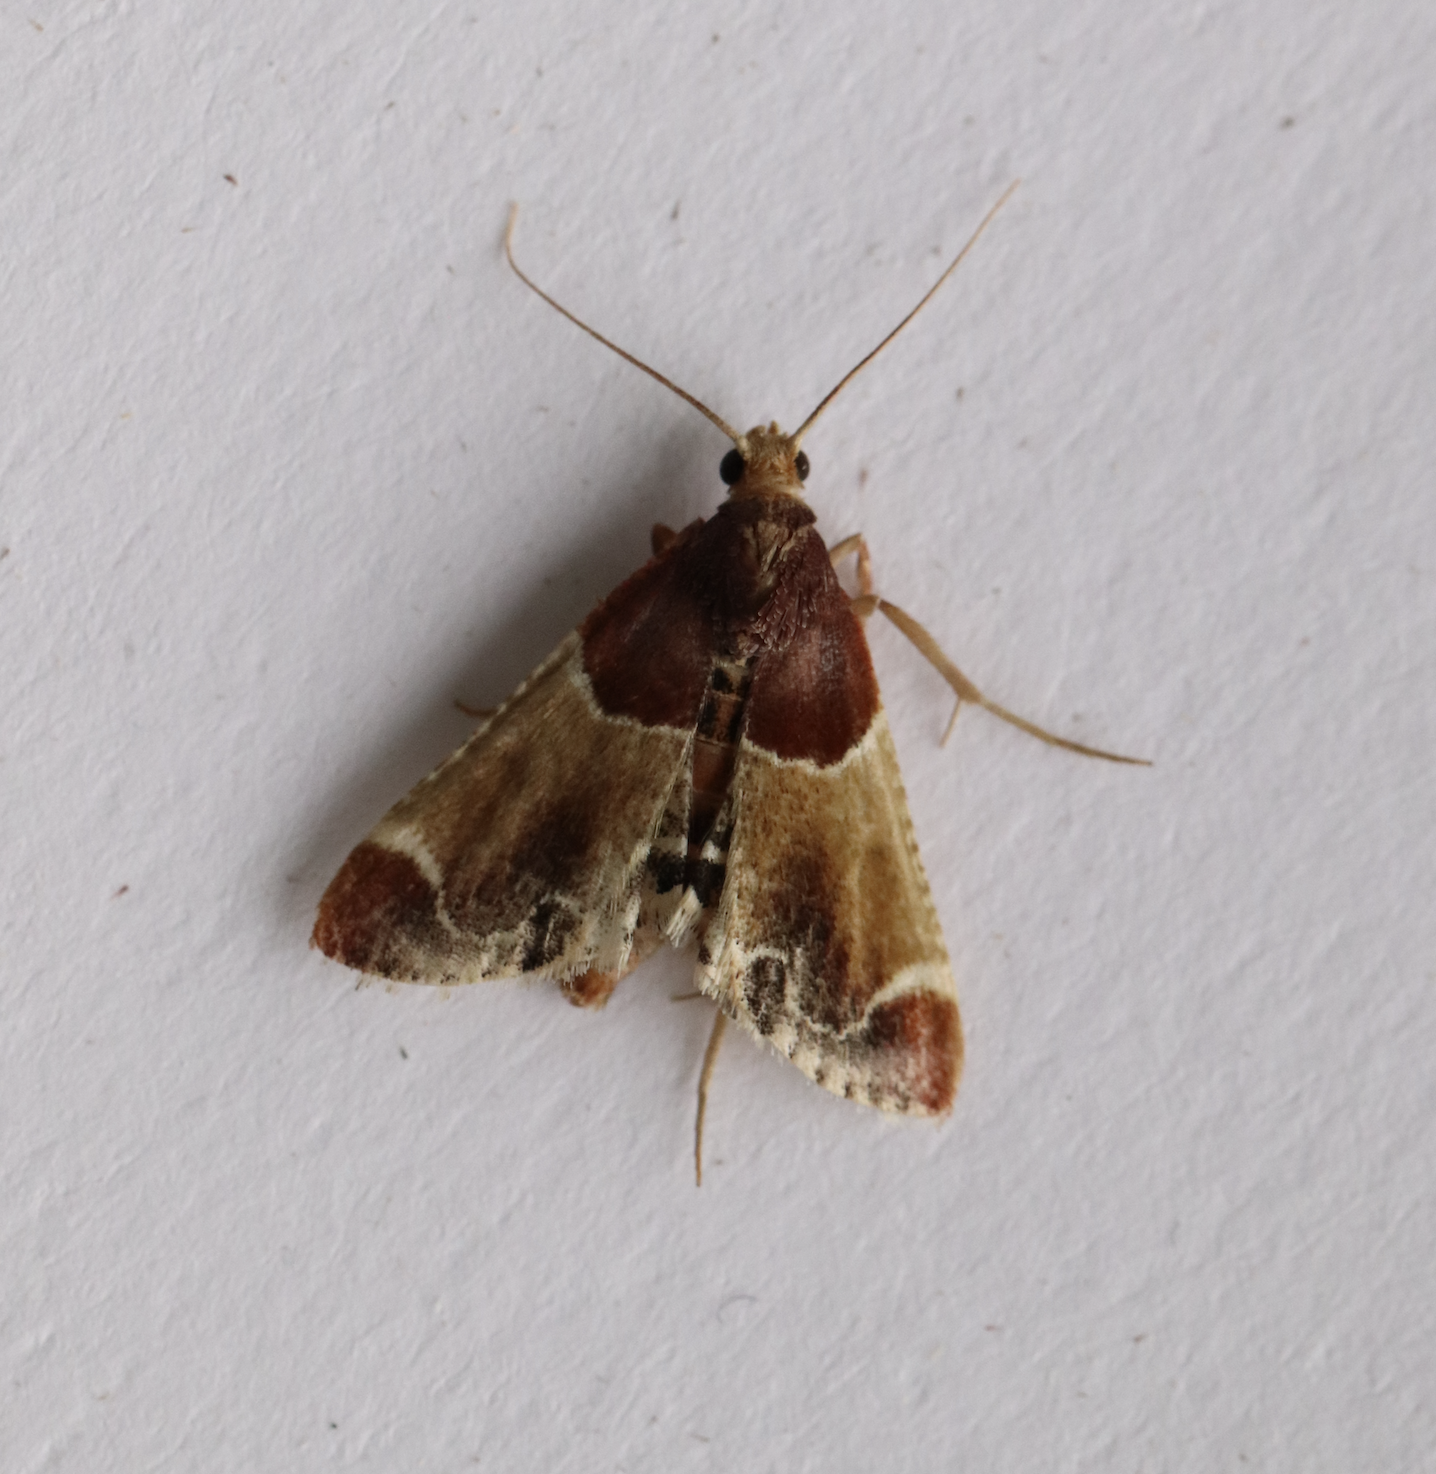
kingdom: Animalia
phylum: Arthropoda
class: Insecta
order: Lepidoptera
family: Pyralidae
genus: Pyralis
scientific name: Pyralis farinalis
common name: Meal moth
